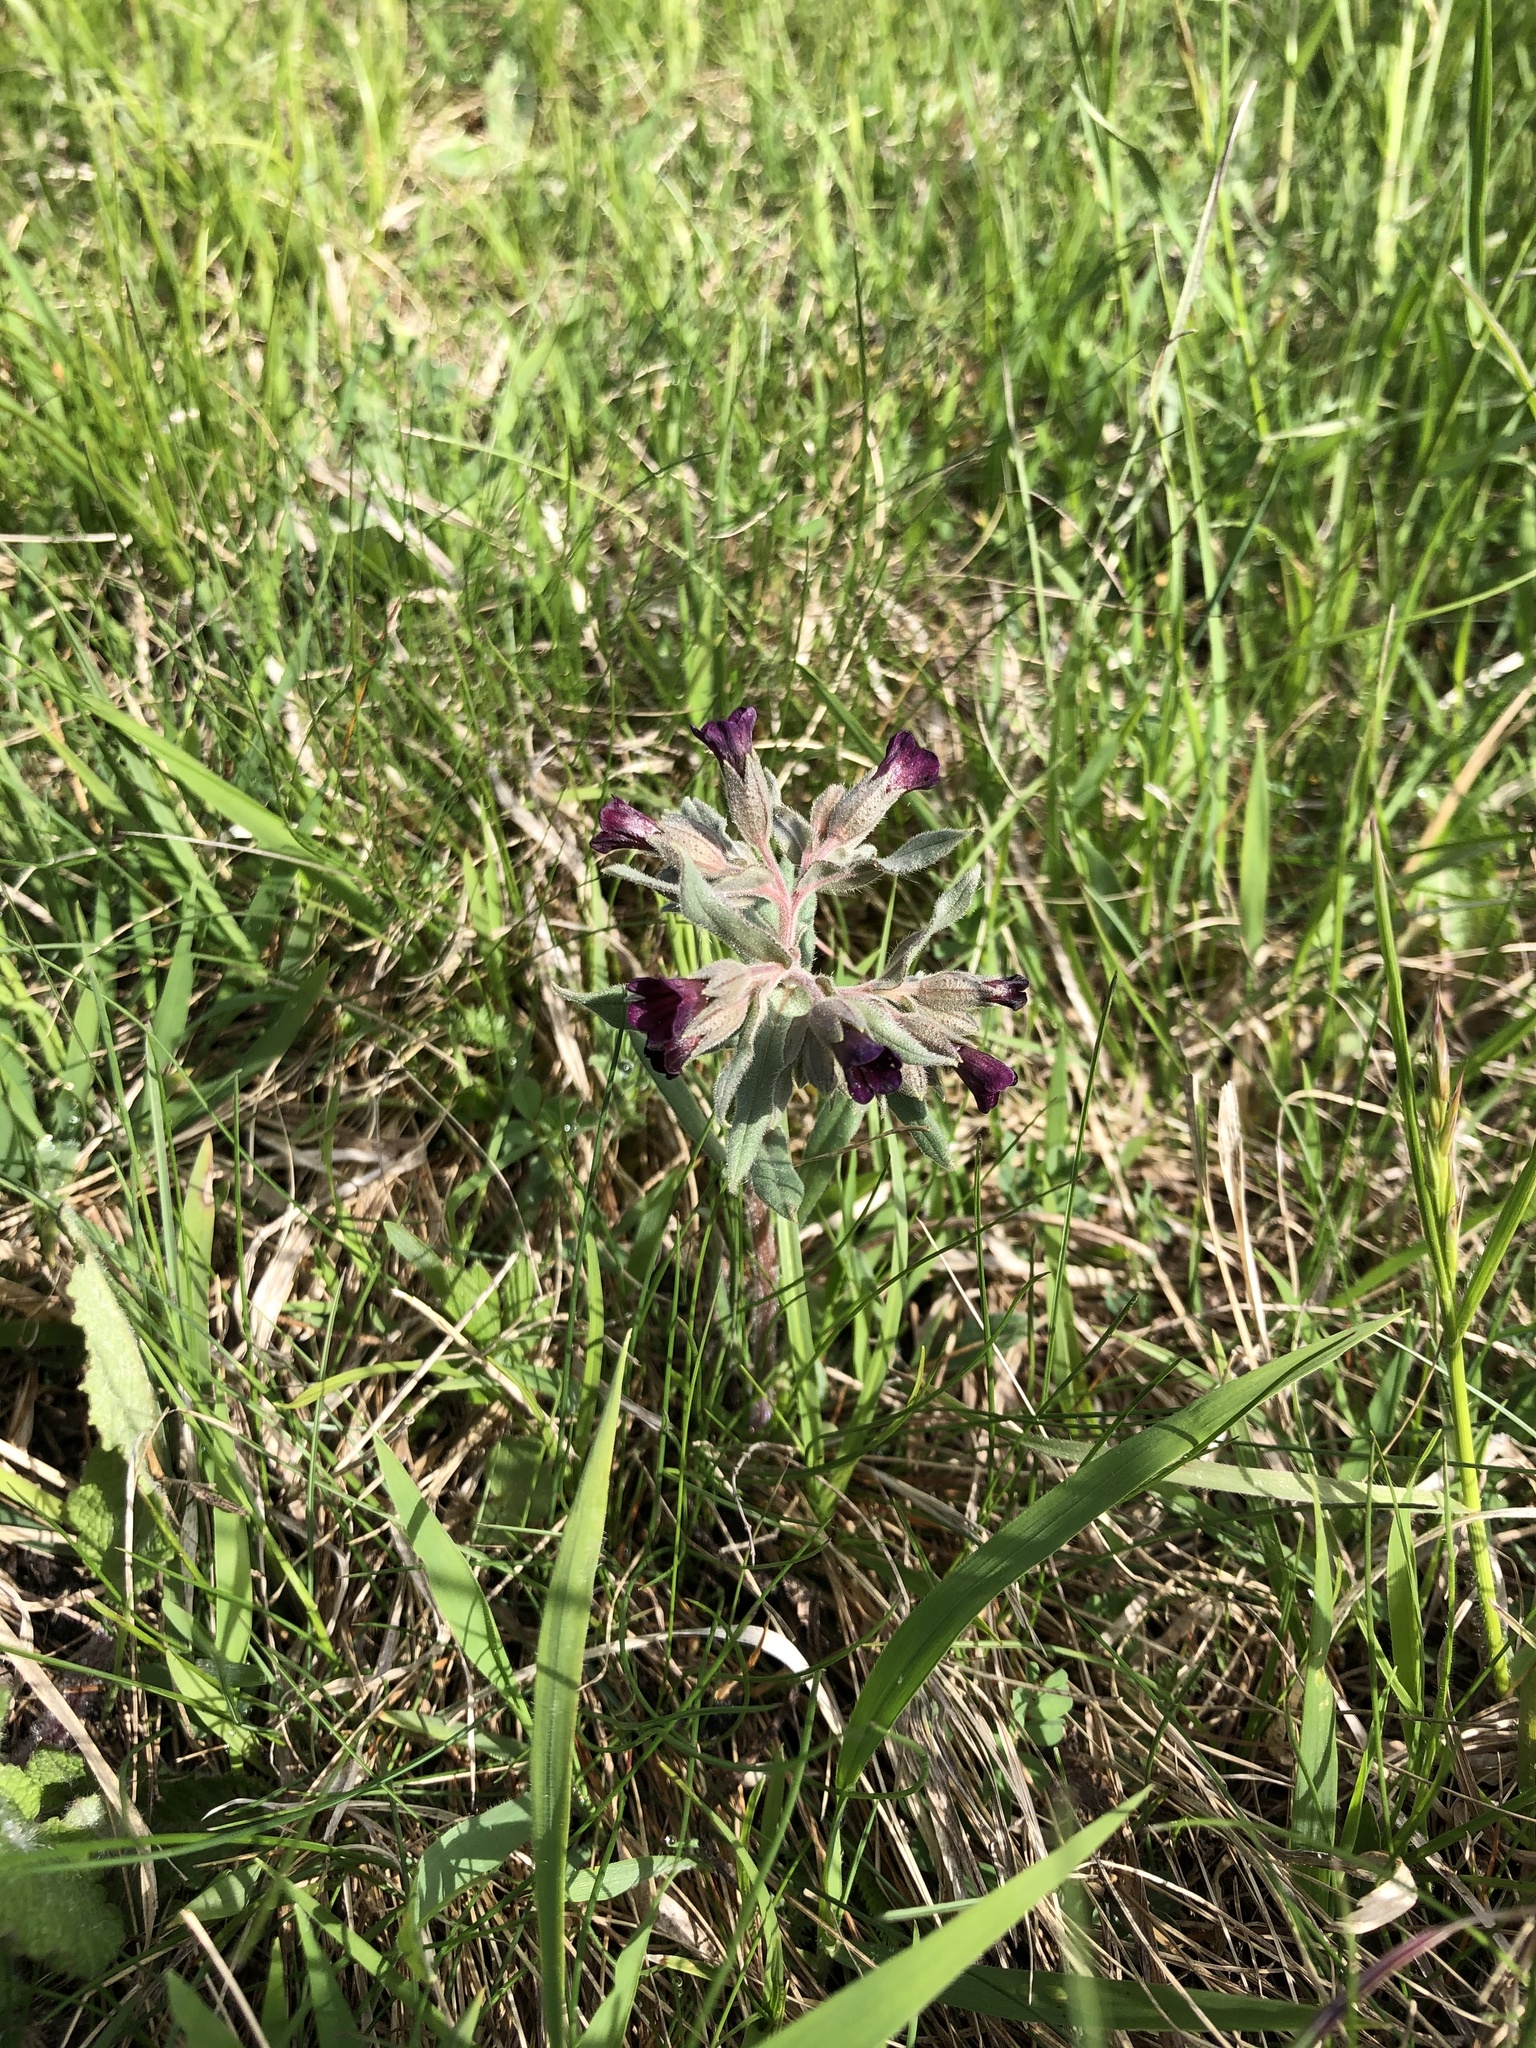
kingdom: Plantae
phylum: Tracheophyta
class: Magnoliopsida
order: Boraginales
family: Boraginaceae
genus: Nonea
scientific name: Nonea pulla
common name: Brown nonea
